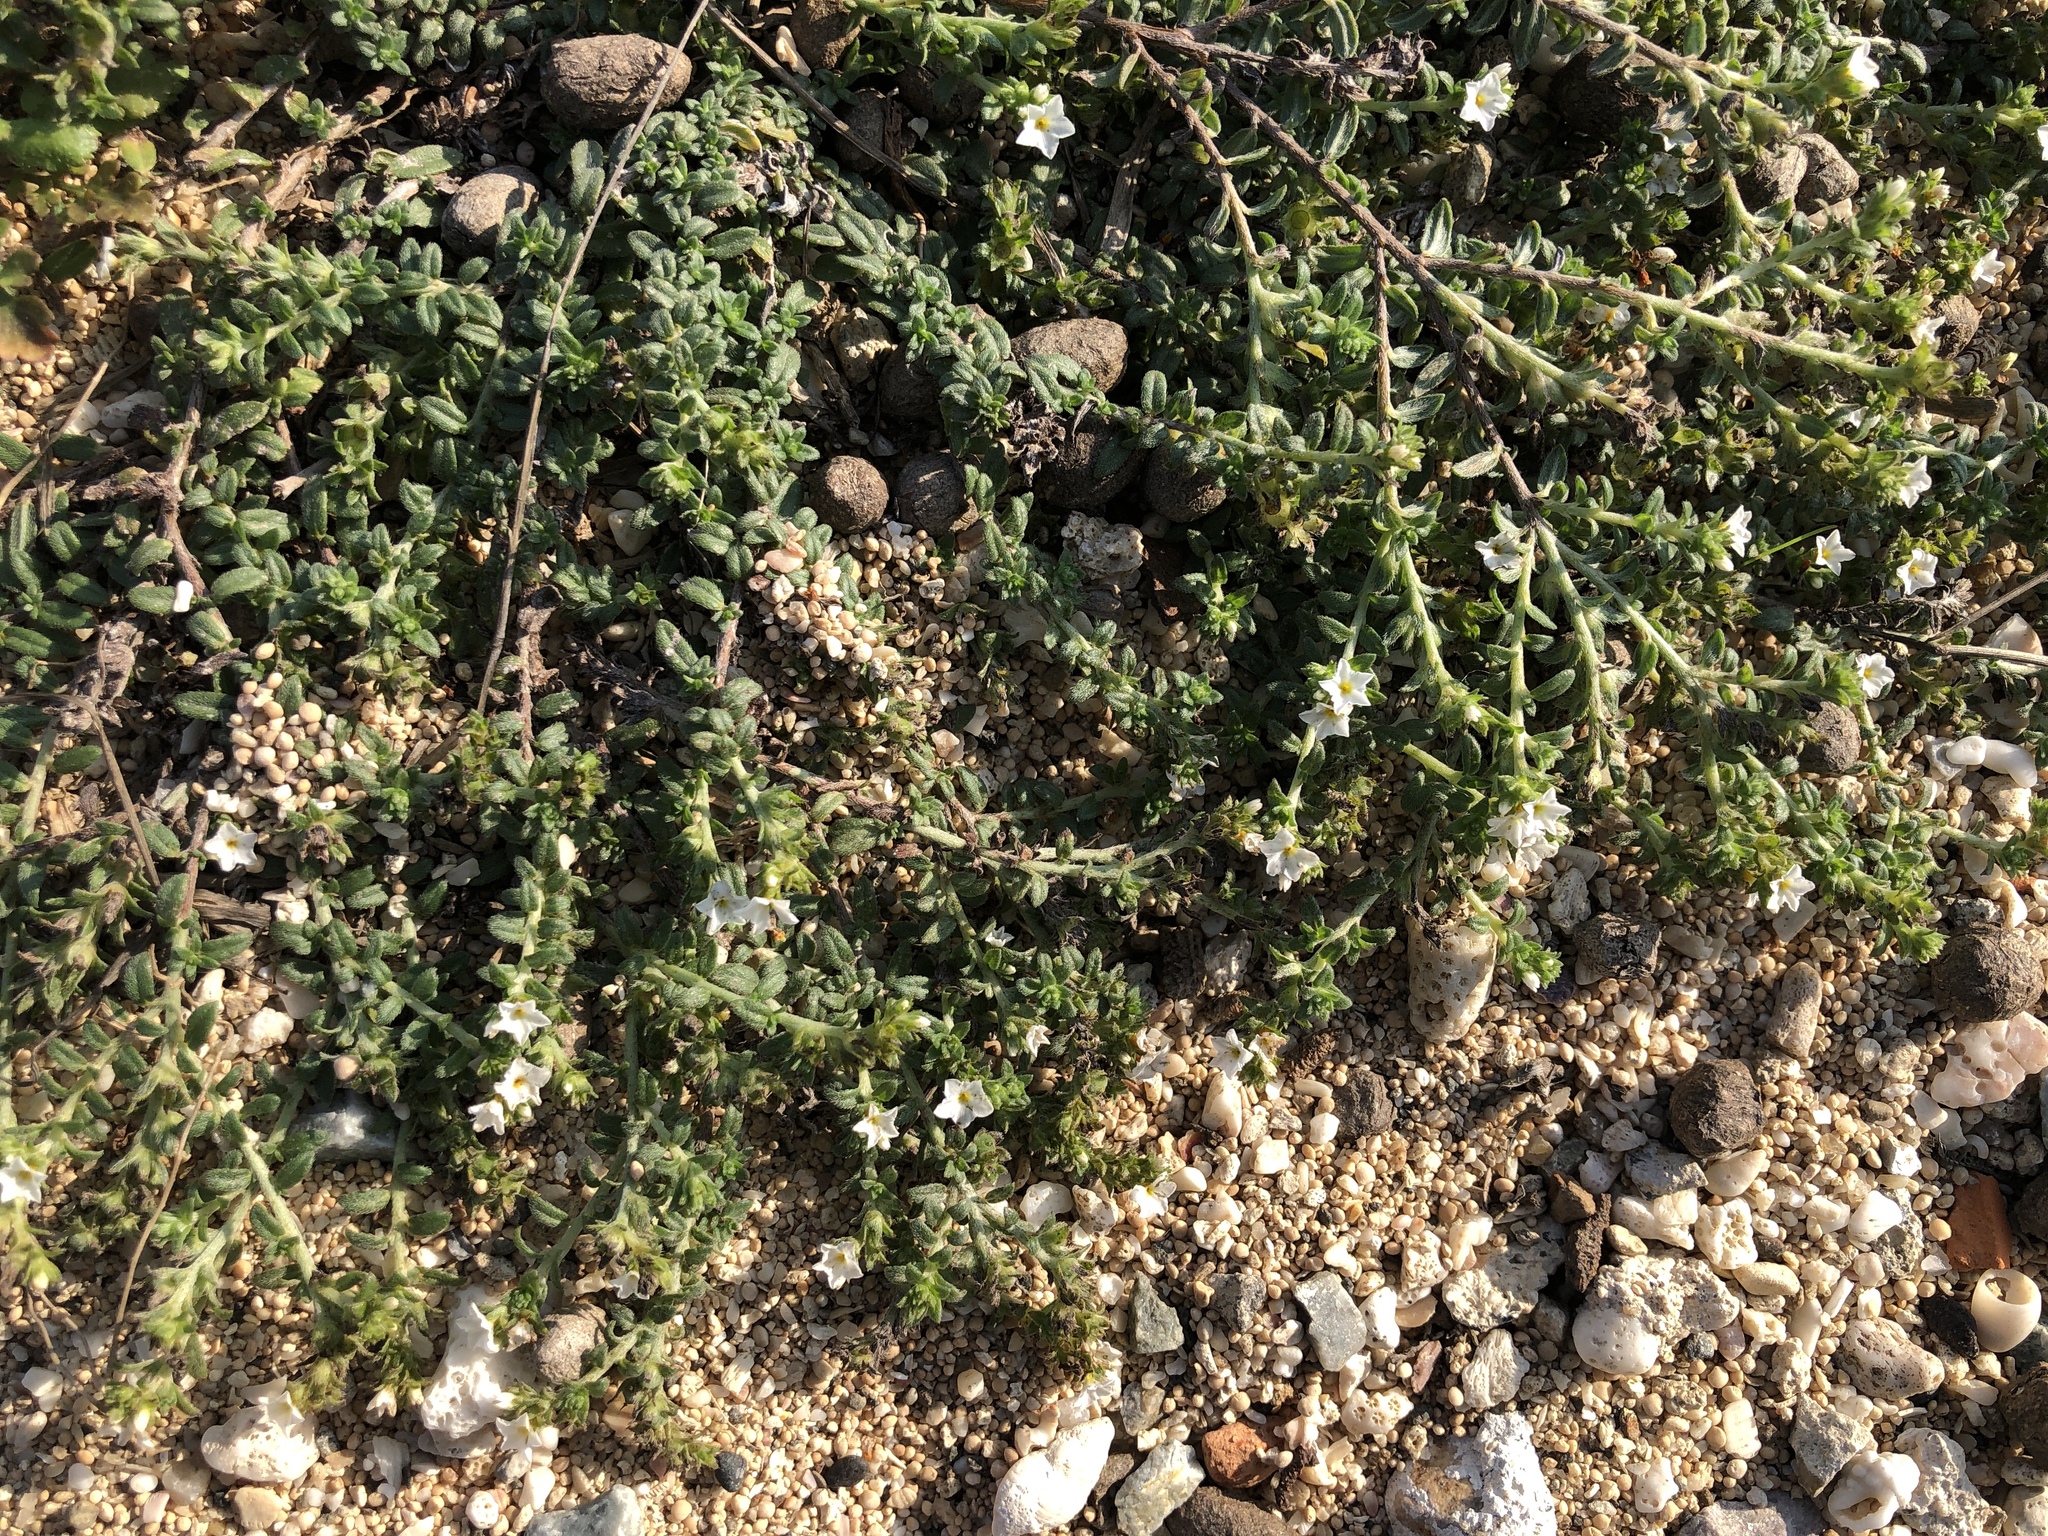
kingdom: Plantae
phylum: Tracheophyta
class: Magnoliopsida
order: Boraginales
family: Heliotropiaceae
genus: Heliotropium
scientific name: Heliotropium formosanum
